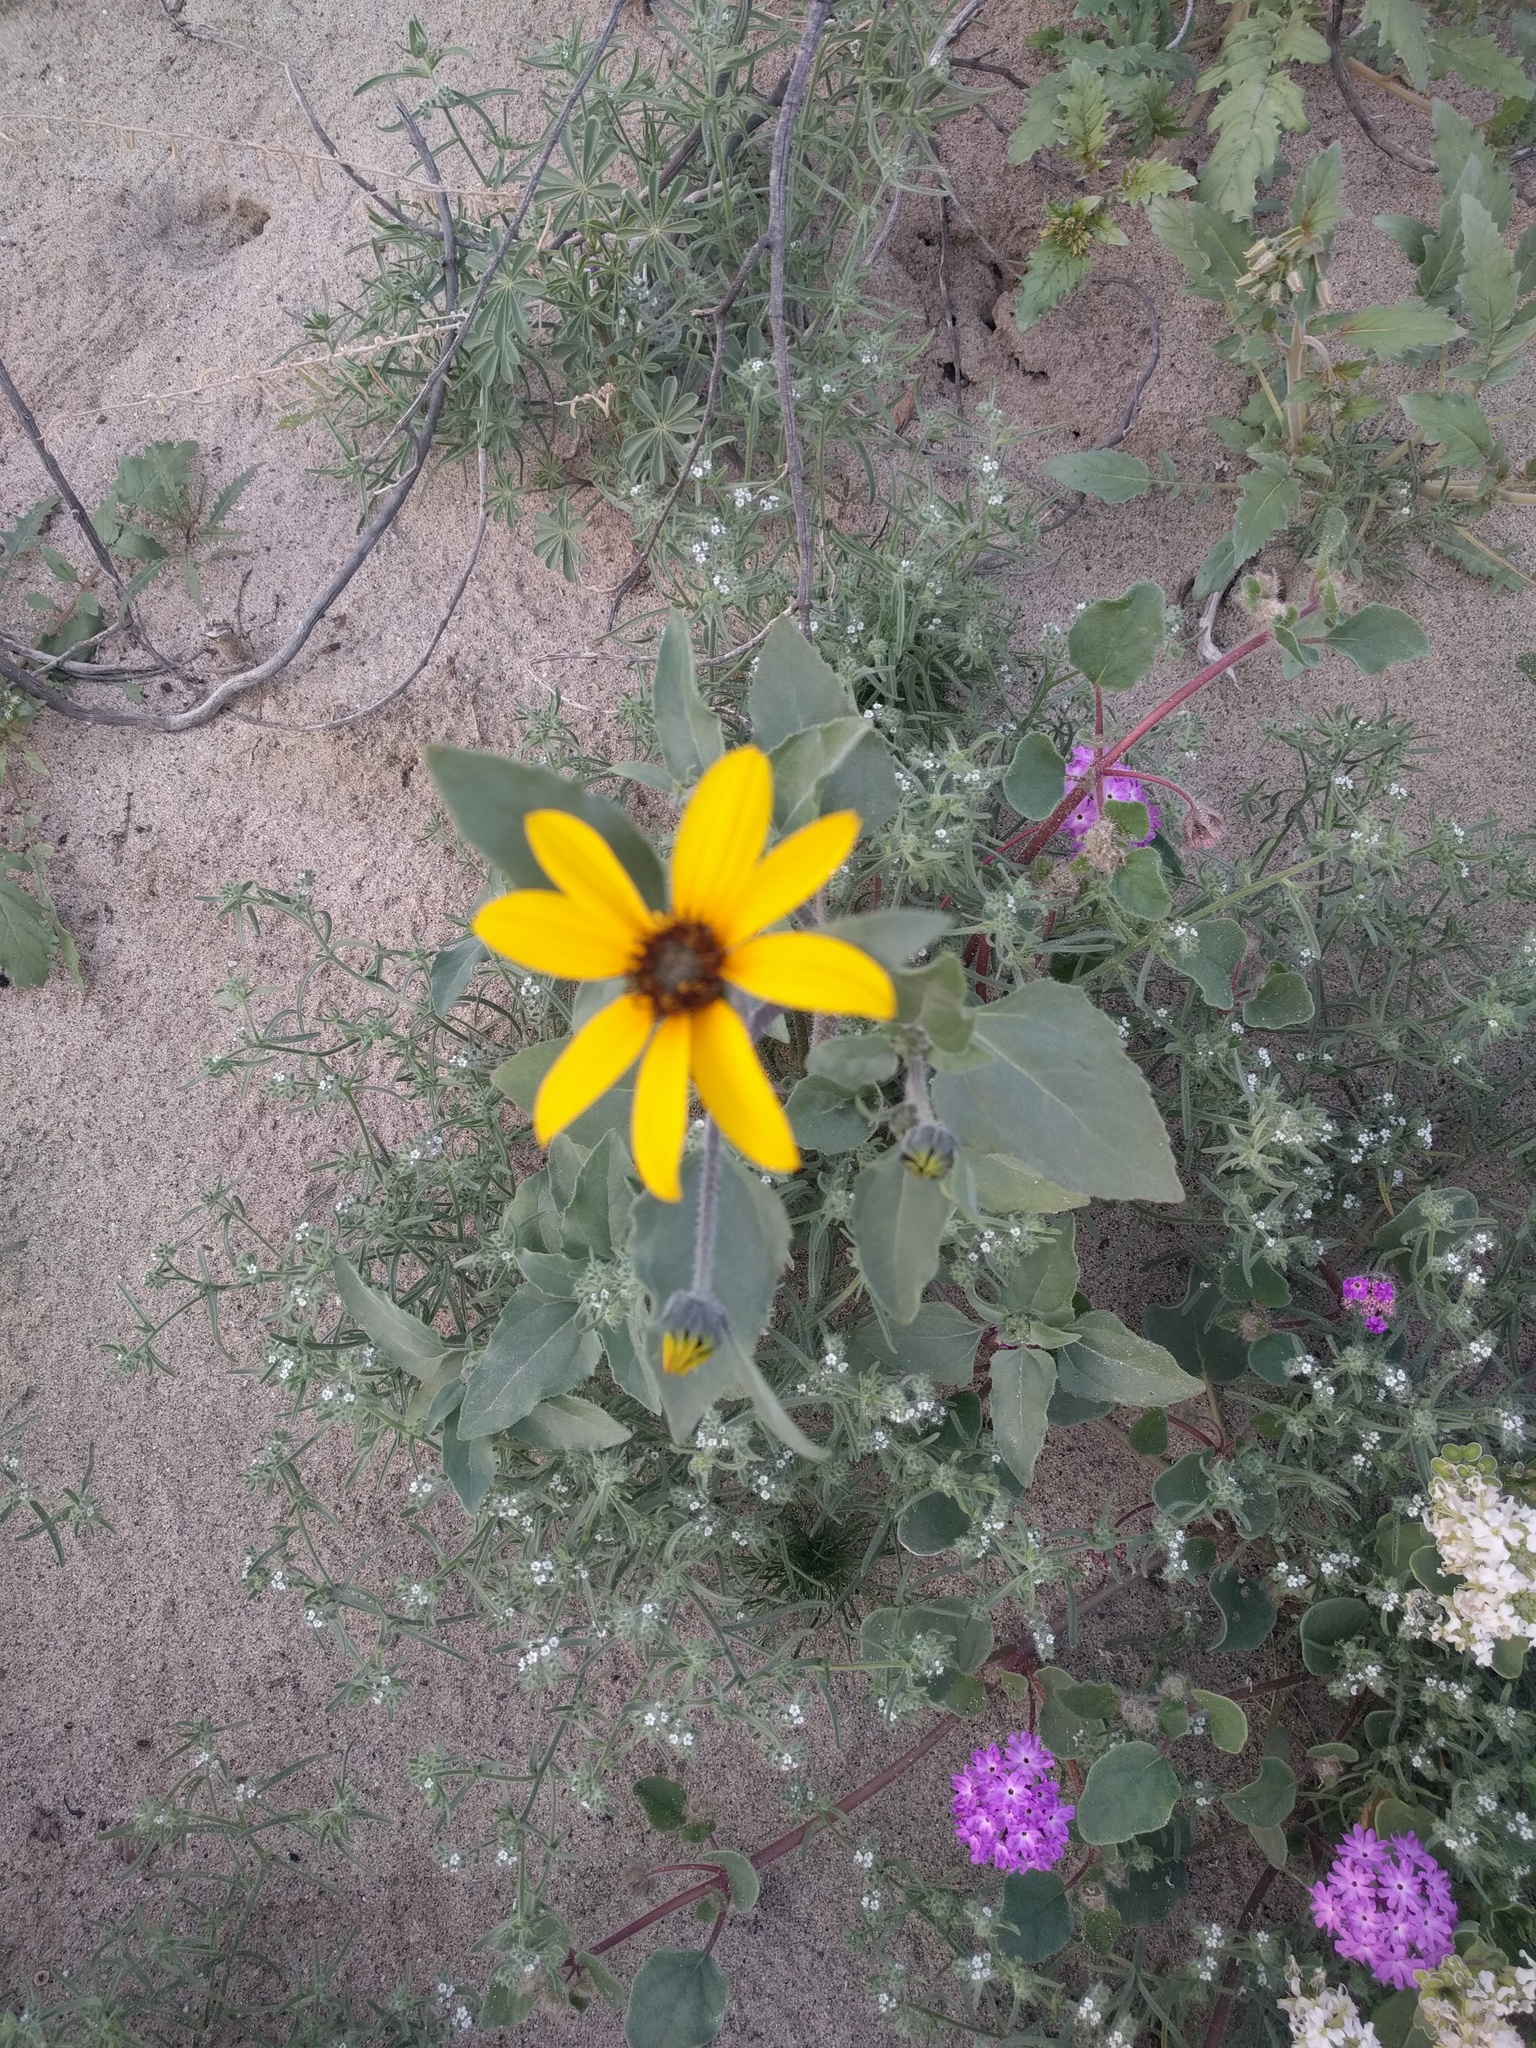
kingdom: Plantae
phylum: Tracheophyta
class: Magnoliopsida
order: Asterales
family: Asteraceae
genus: Helianthus
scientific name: Helianthus petiolaris
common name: Lesser sunflower
